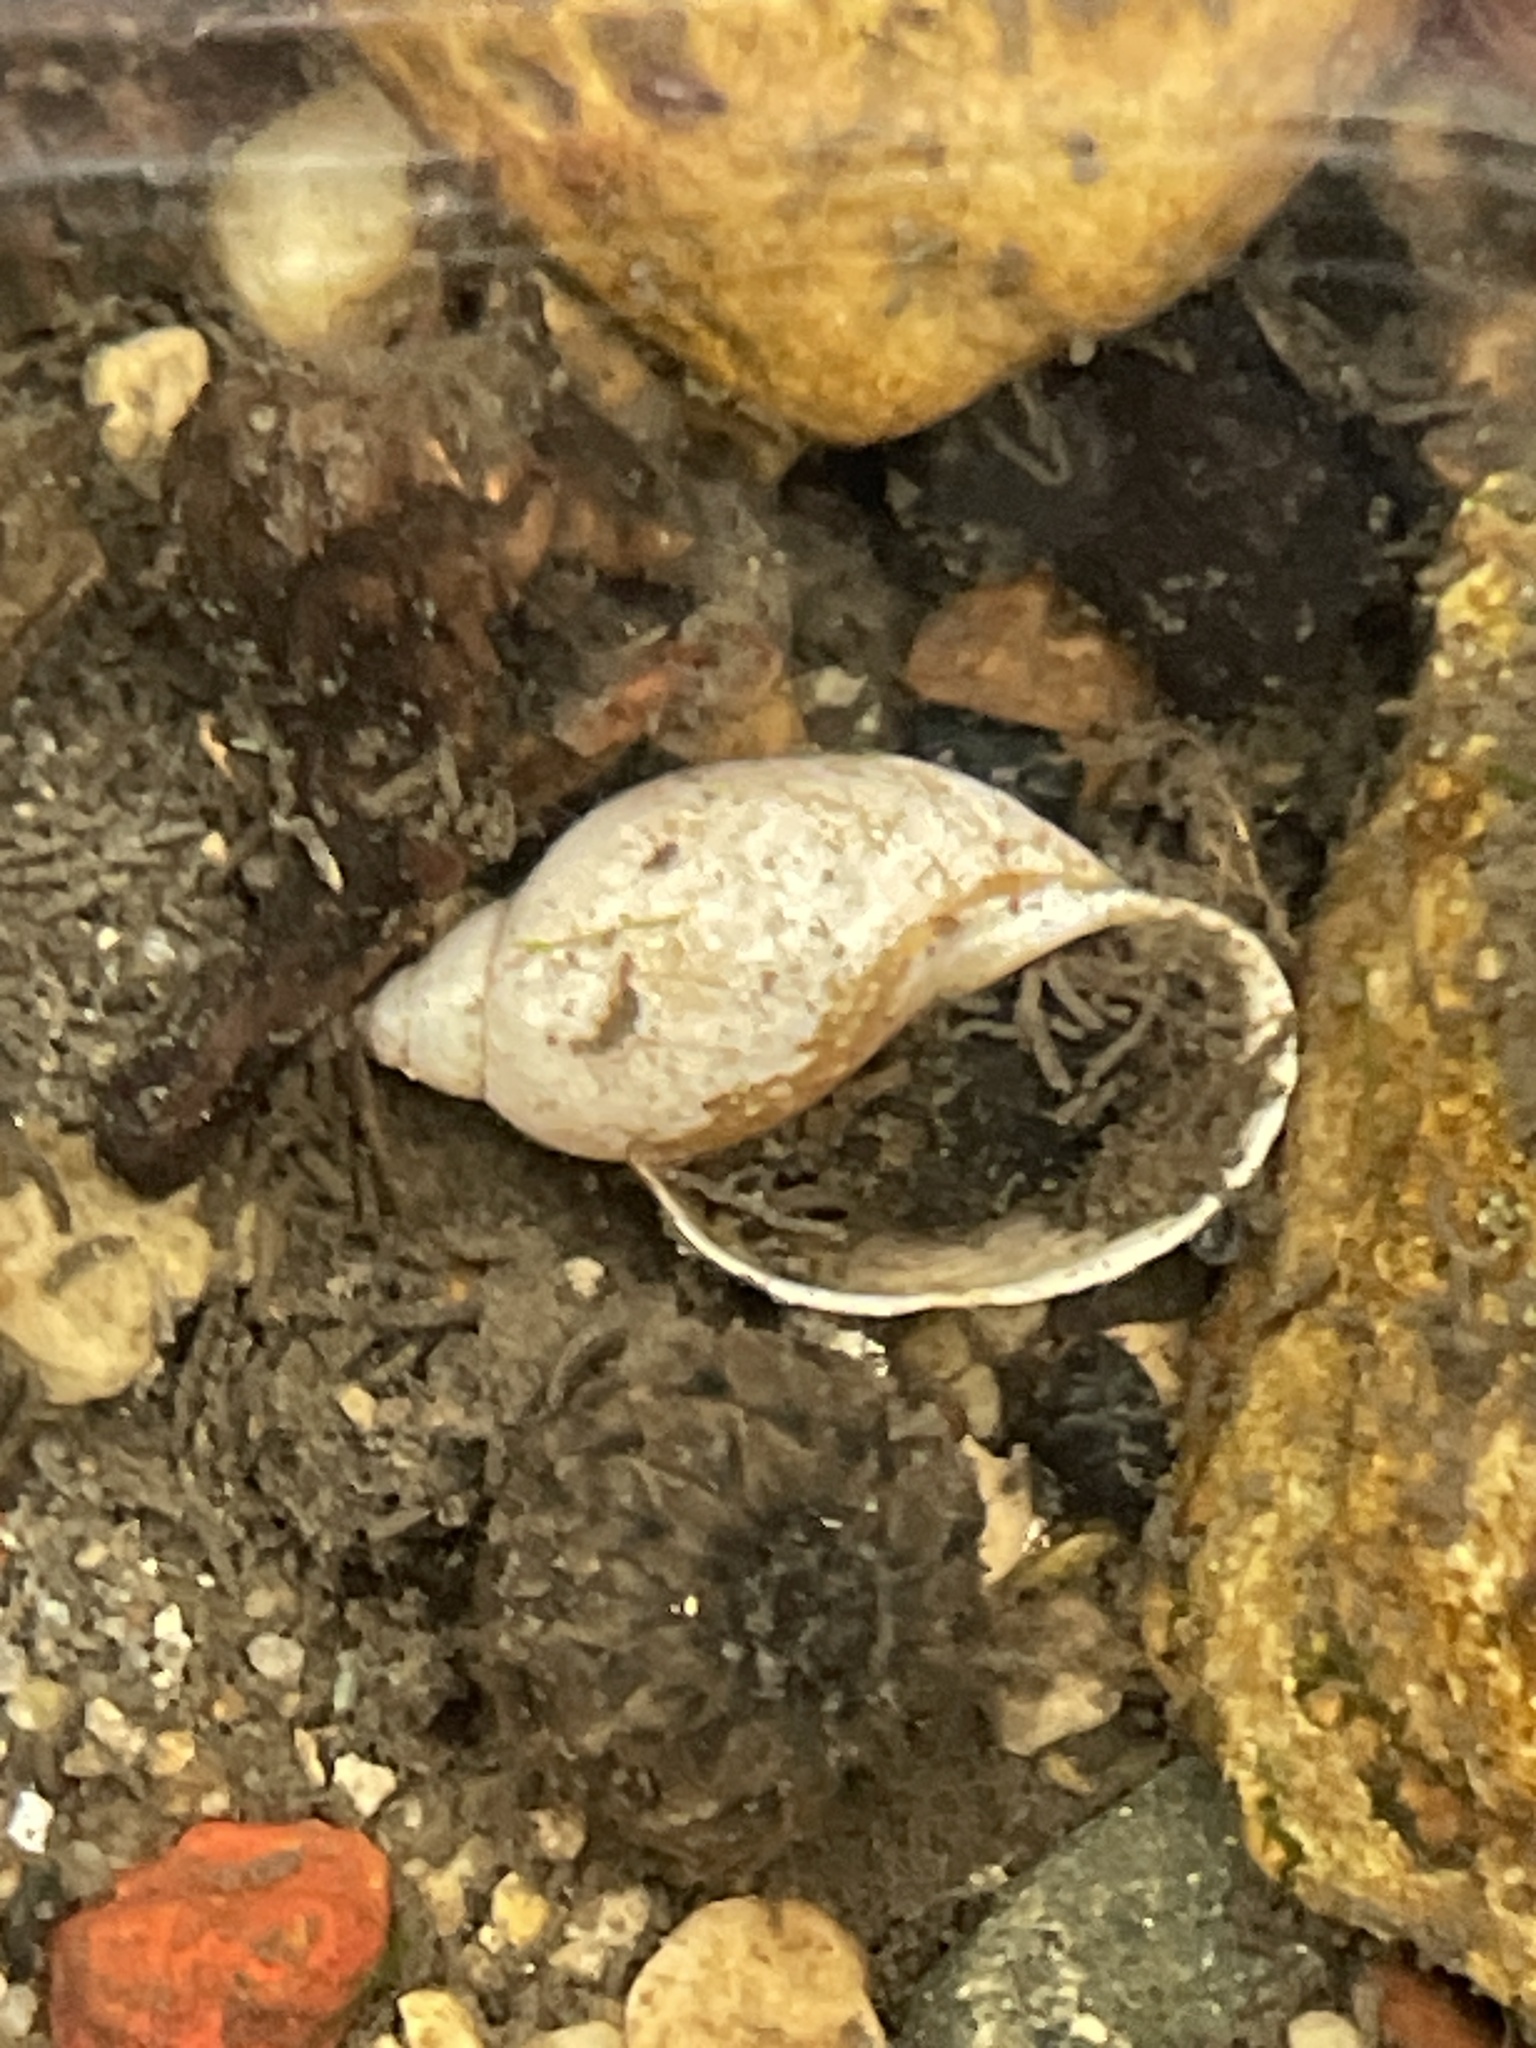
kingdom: Animalia
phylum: Mollusca
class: Gastropoda
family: Physidae
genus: Physella
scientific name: Physella acuta
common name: European physa
